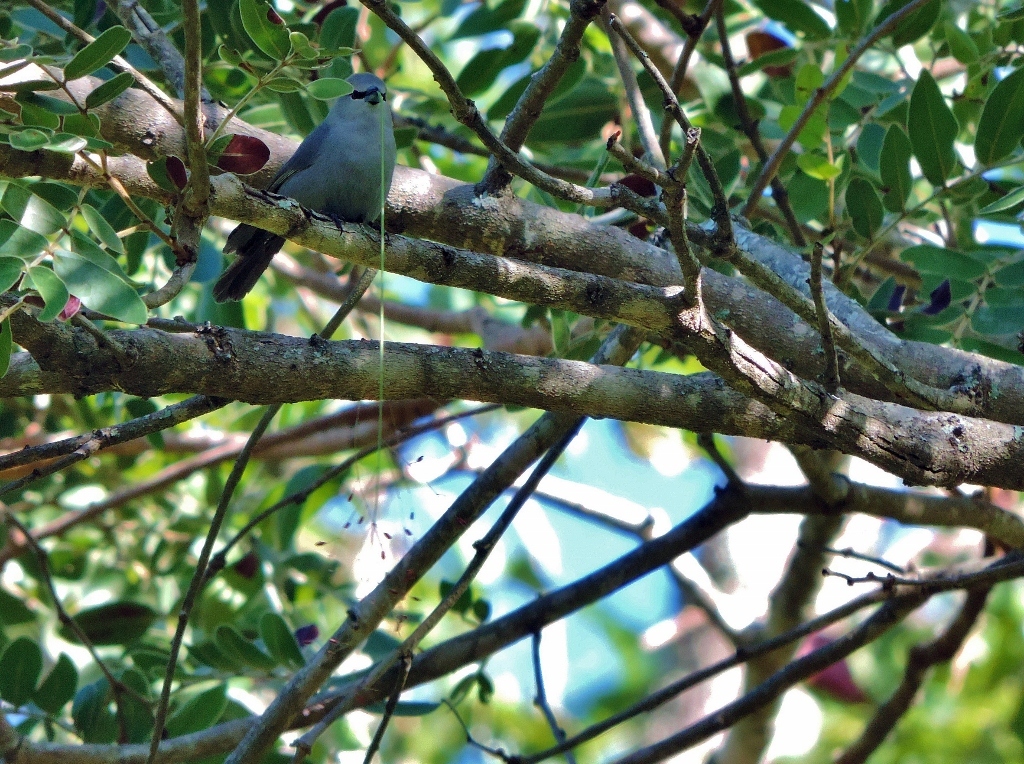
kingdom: Animalia
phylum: Chordata
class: Aves
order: Passeriformes
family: Estrildidae
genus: Estrilda
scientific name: Estrilda perreini
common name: Grey waxbill
